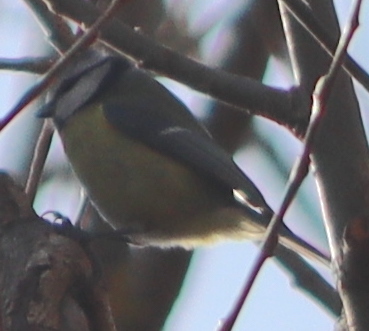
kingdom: Animalia
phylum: Chordata
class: Aves
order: Passeriformes
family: Paridae
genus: Cyanistes
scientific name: Cyanistes caeruleus
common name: Eurasian blue tit
